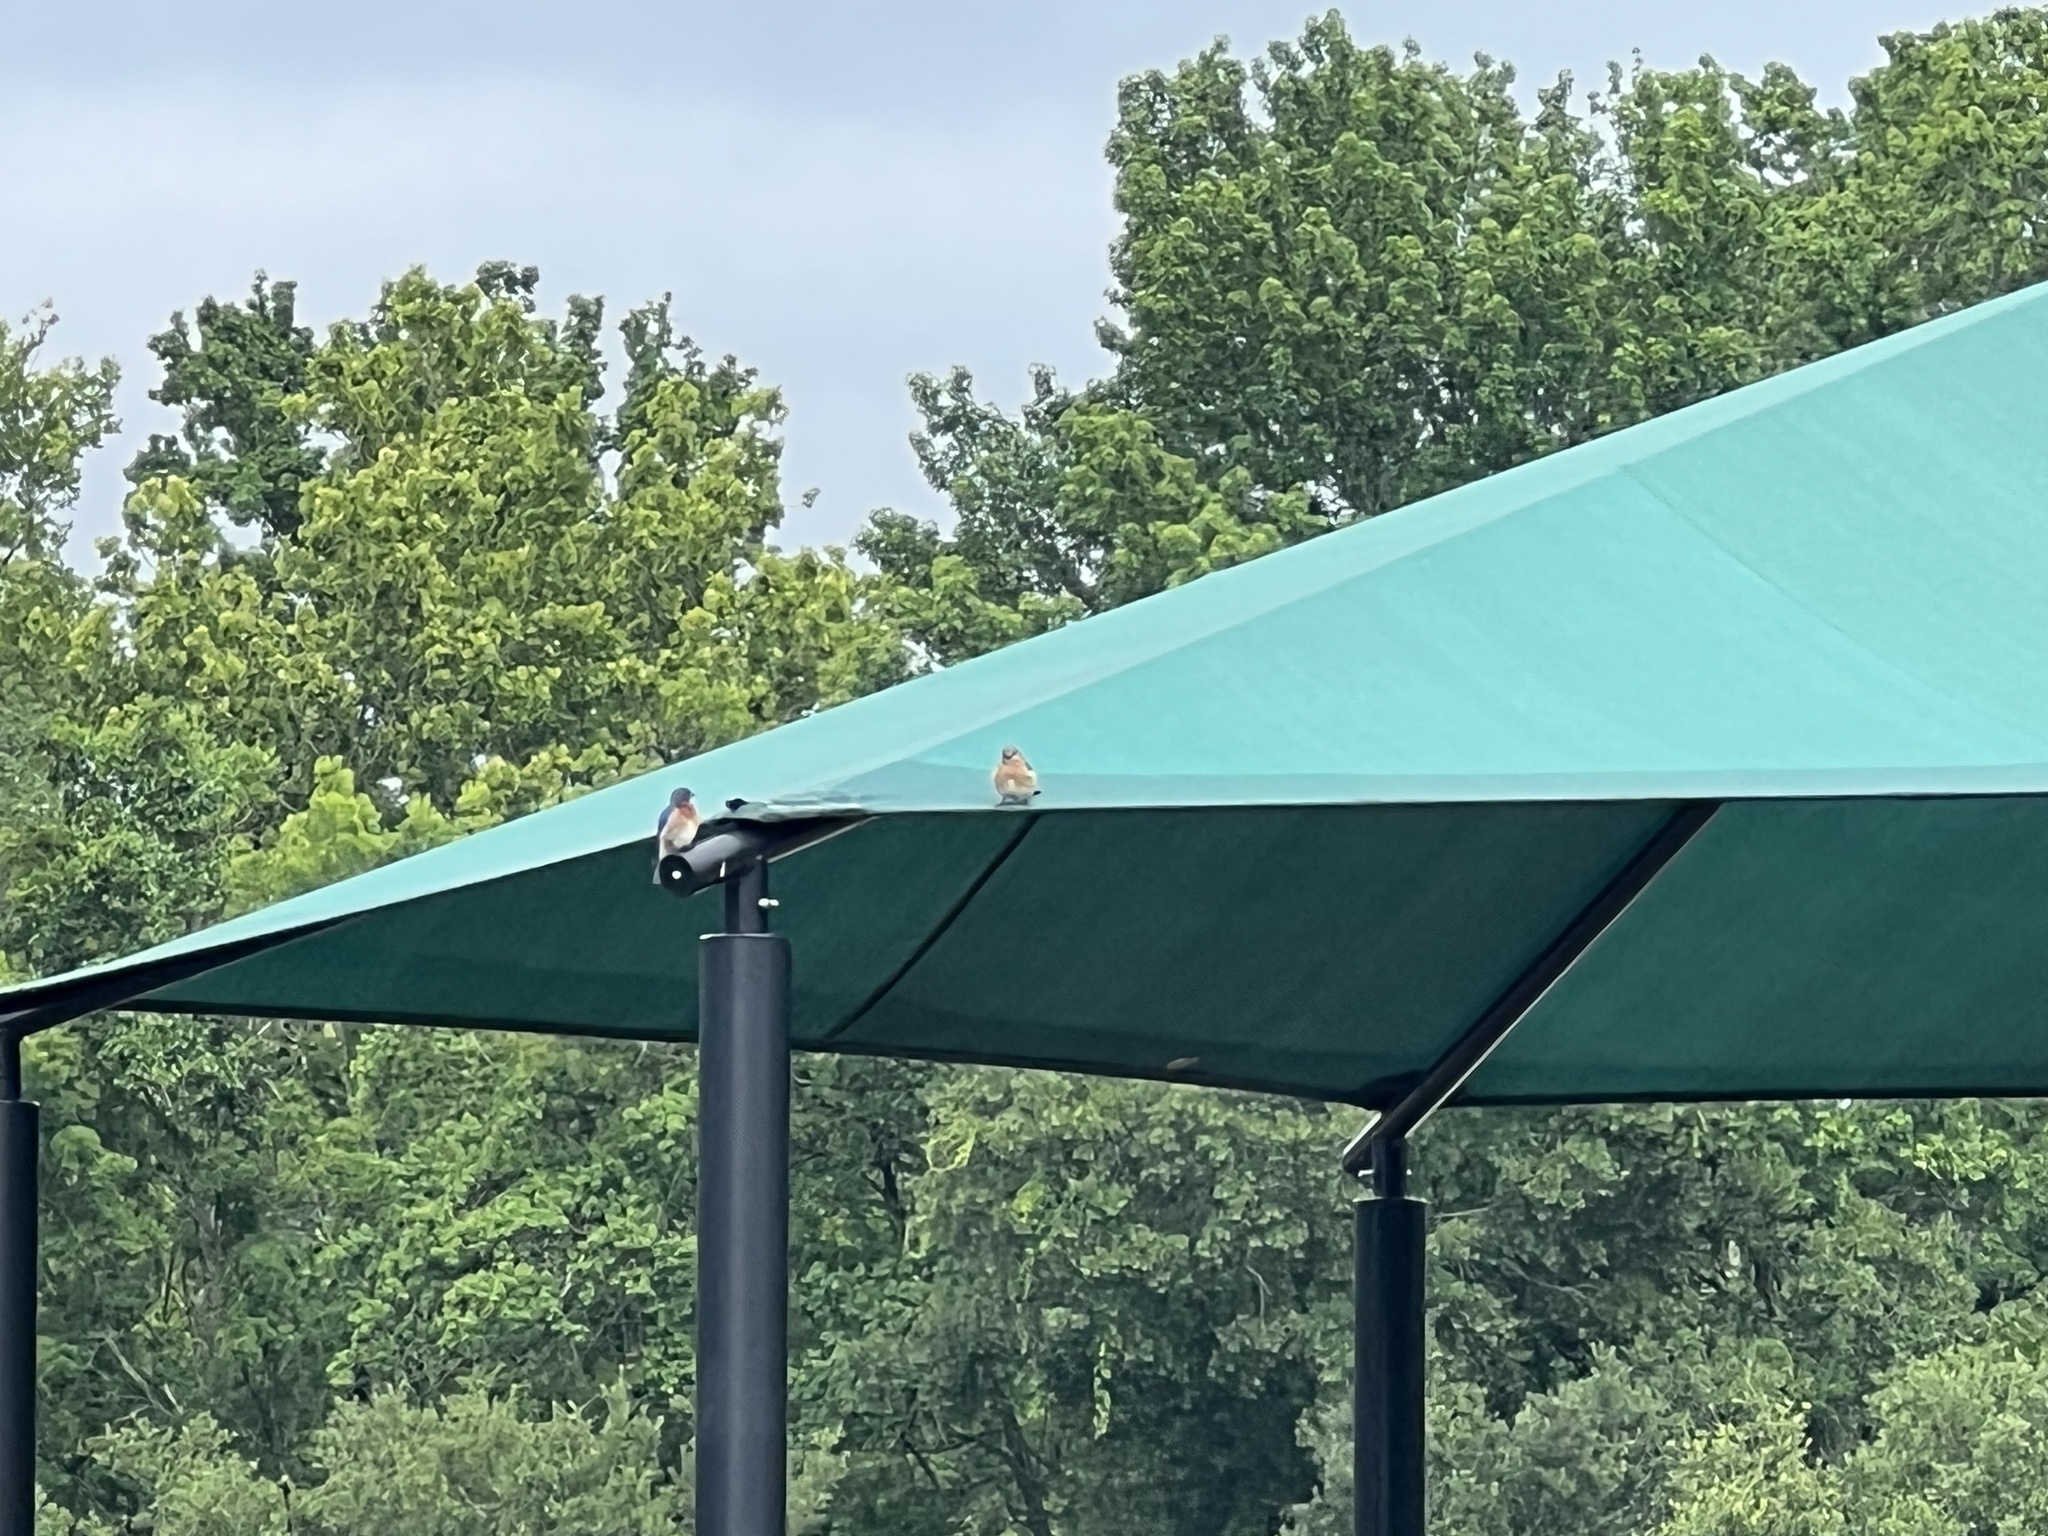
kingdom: Animalia
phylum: Chordata
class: Aves
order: Passeriformes
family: Turdidae
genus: Sialia
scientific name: Sialia sialis
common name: Eastern bluebird
